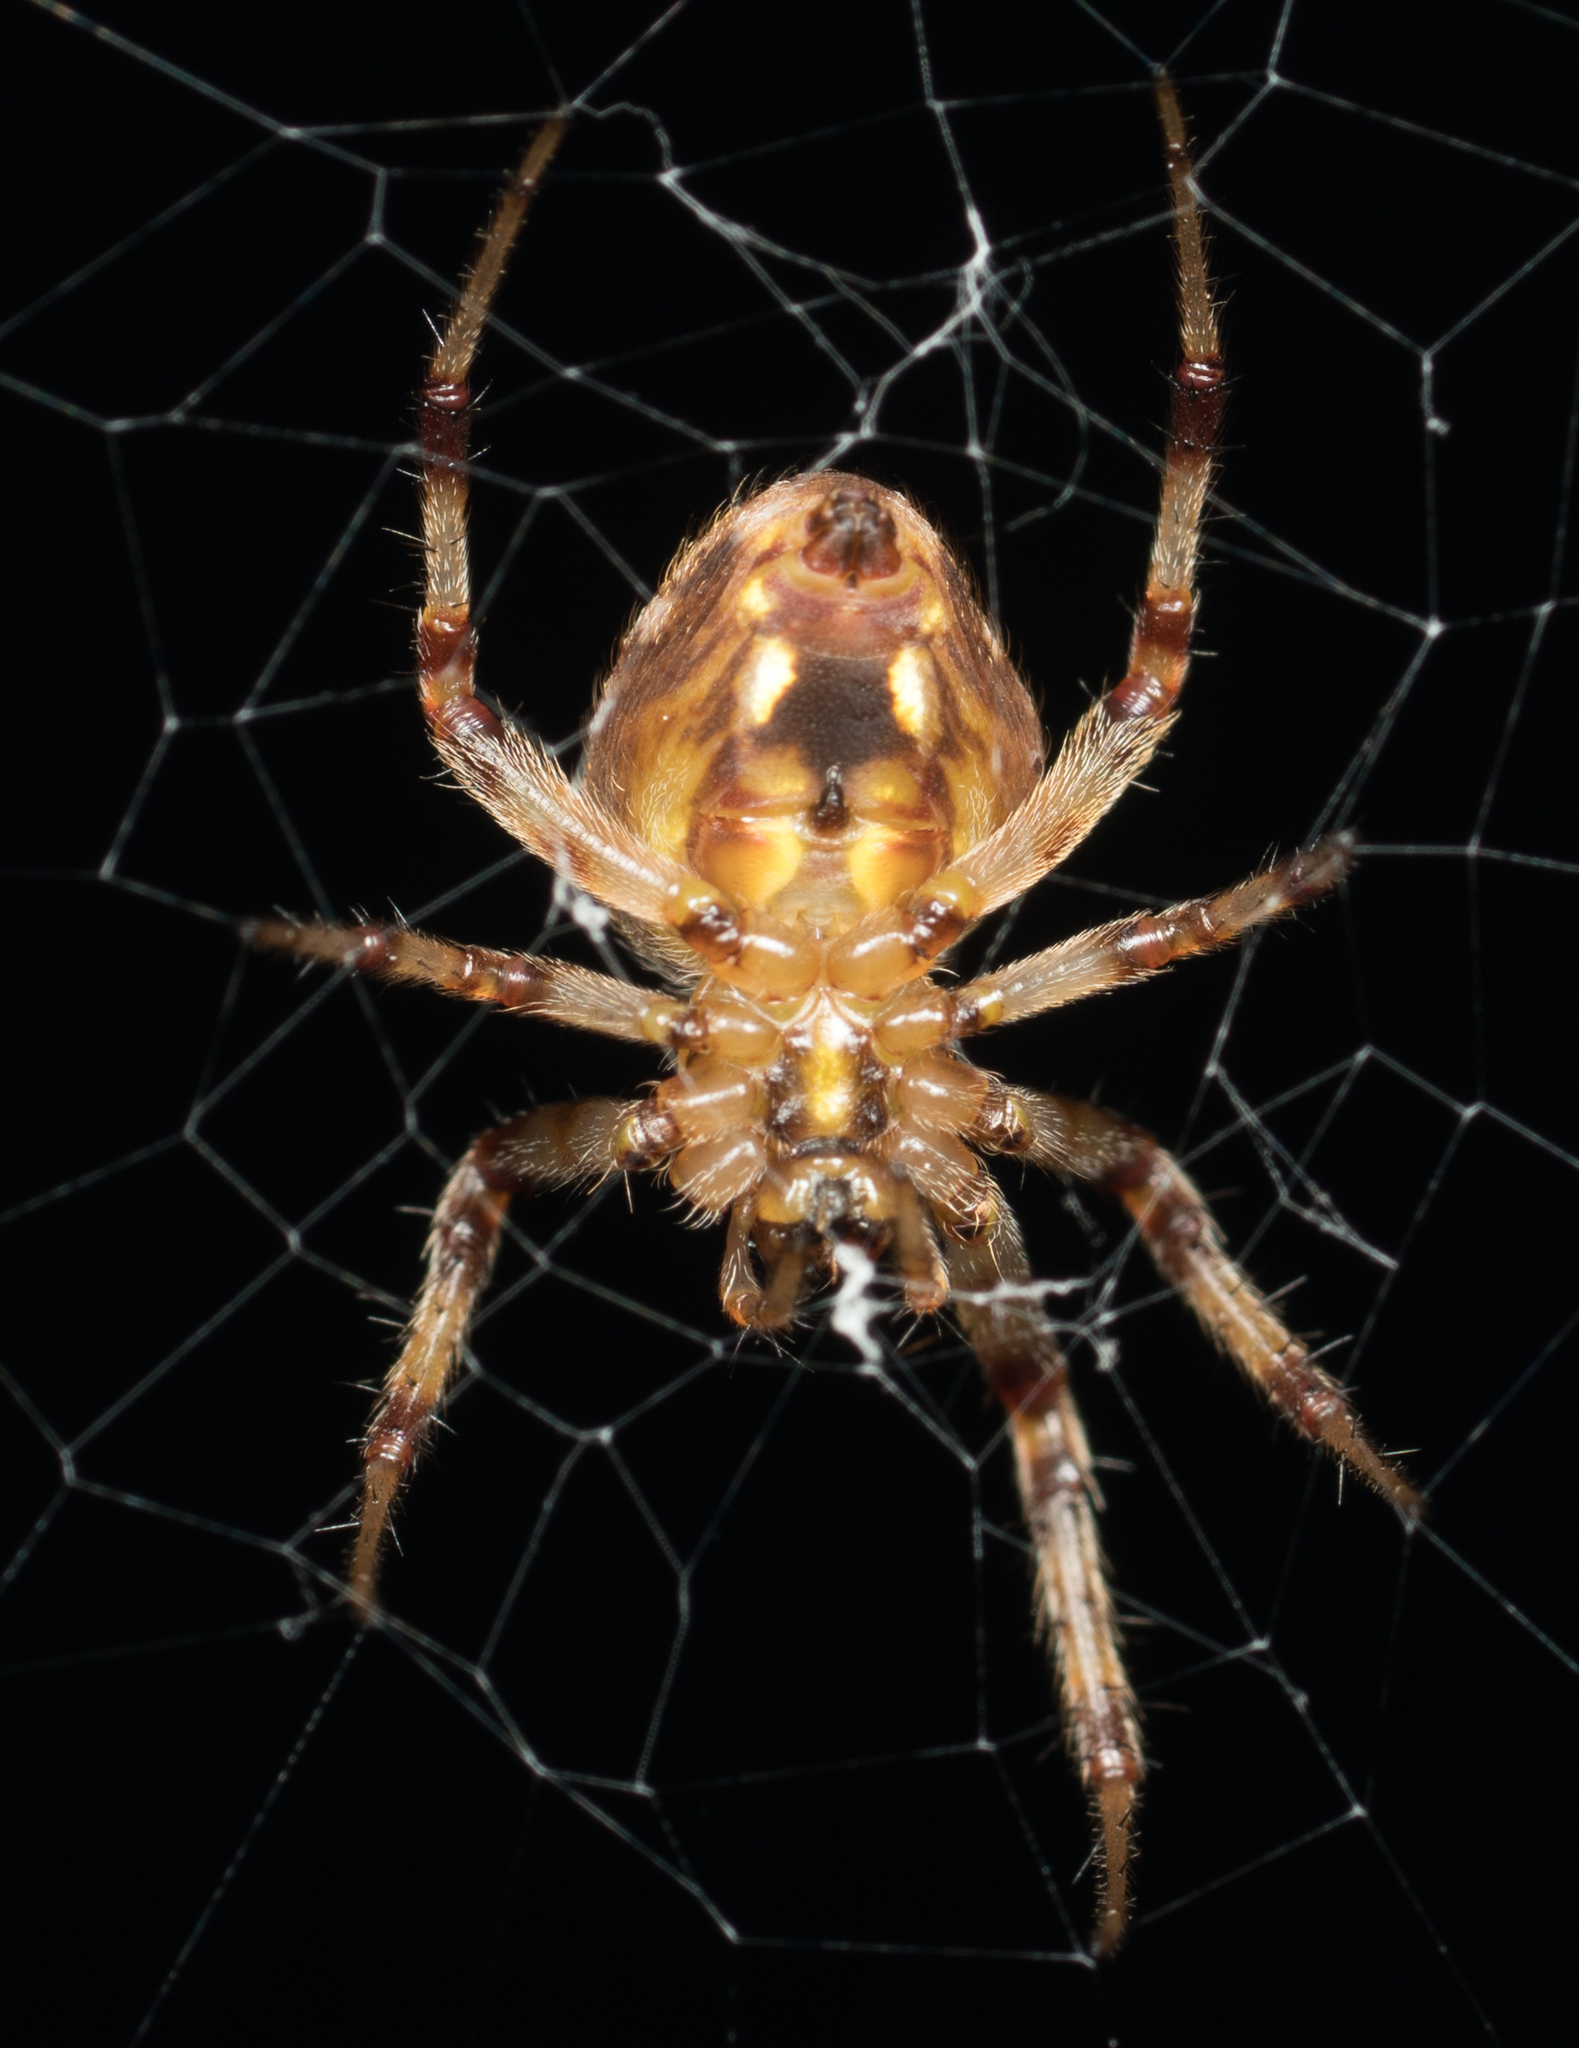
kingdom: Animalia
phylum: Arthropoda
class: Arachnida
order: Araneae
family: Araneidae
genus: Neoscona
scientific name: Neoscona arabesca
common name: Orb weavers
